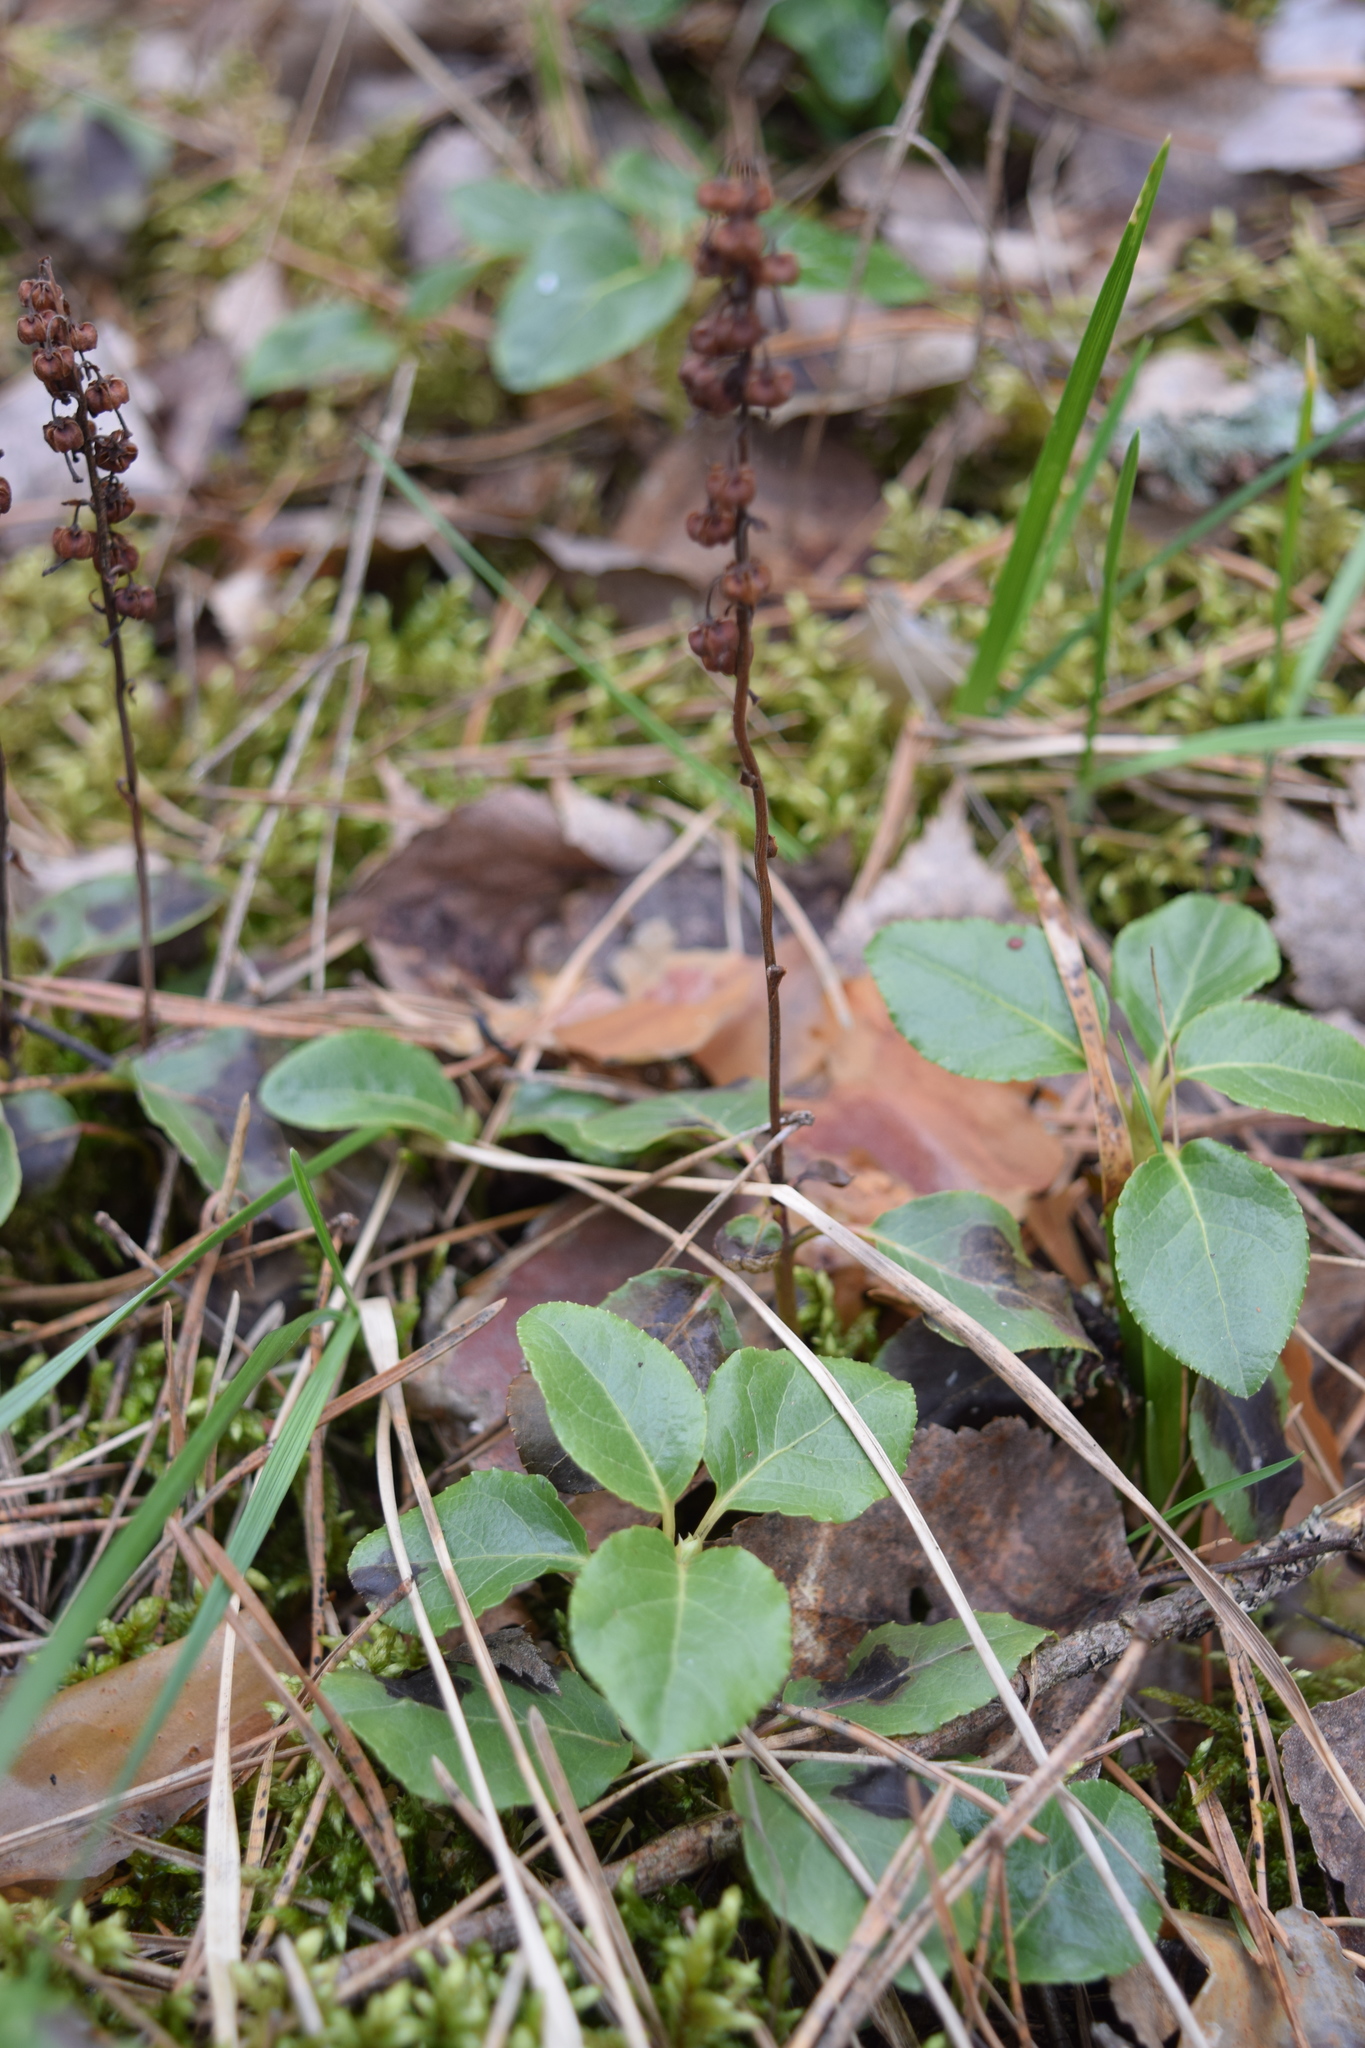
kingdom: Plantae
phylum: Tracheophyta
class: Magnoliopsida
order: Ericales
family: Ericaceae
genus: Orthilia
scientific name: Orthilia secunda
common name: One-sided orthilia
